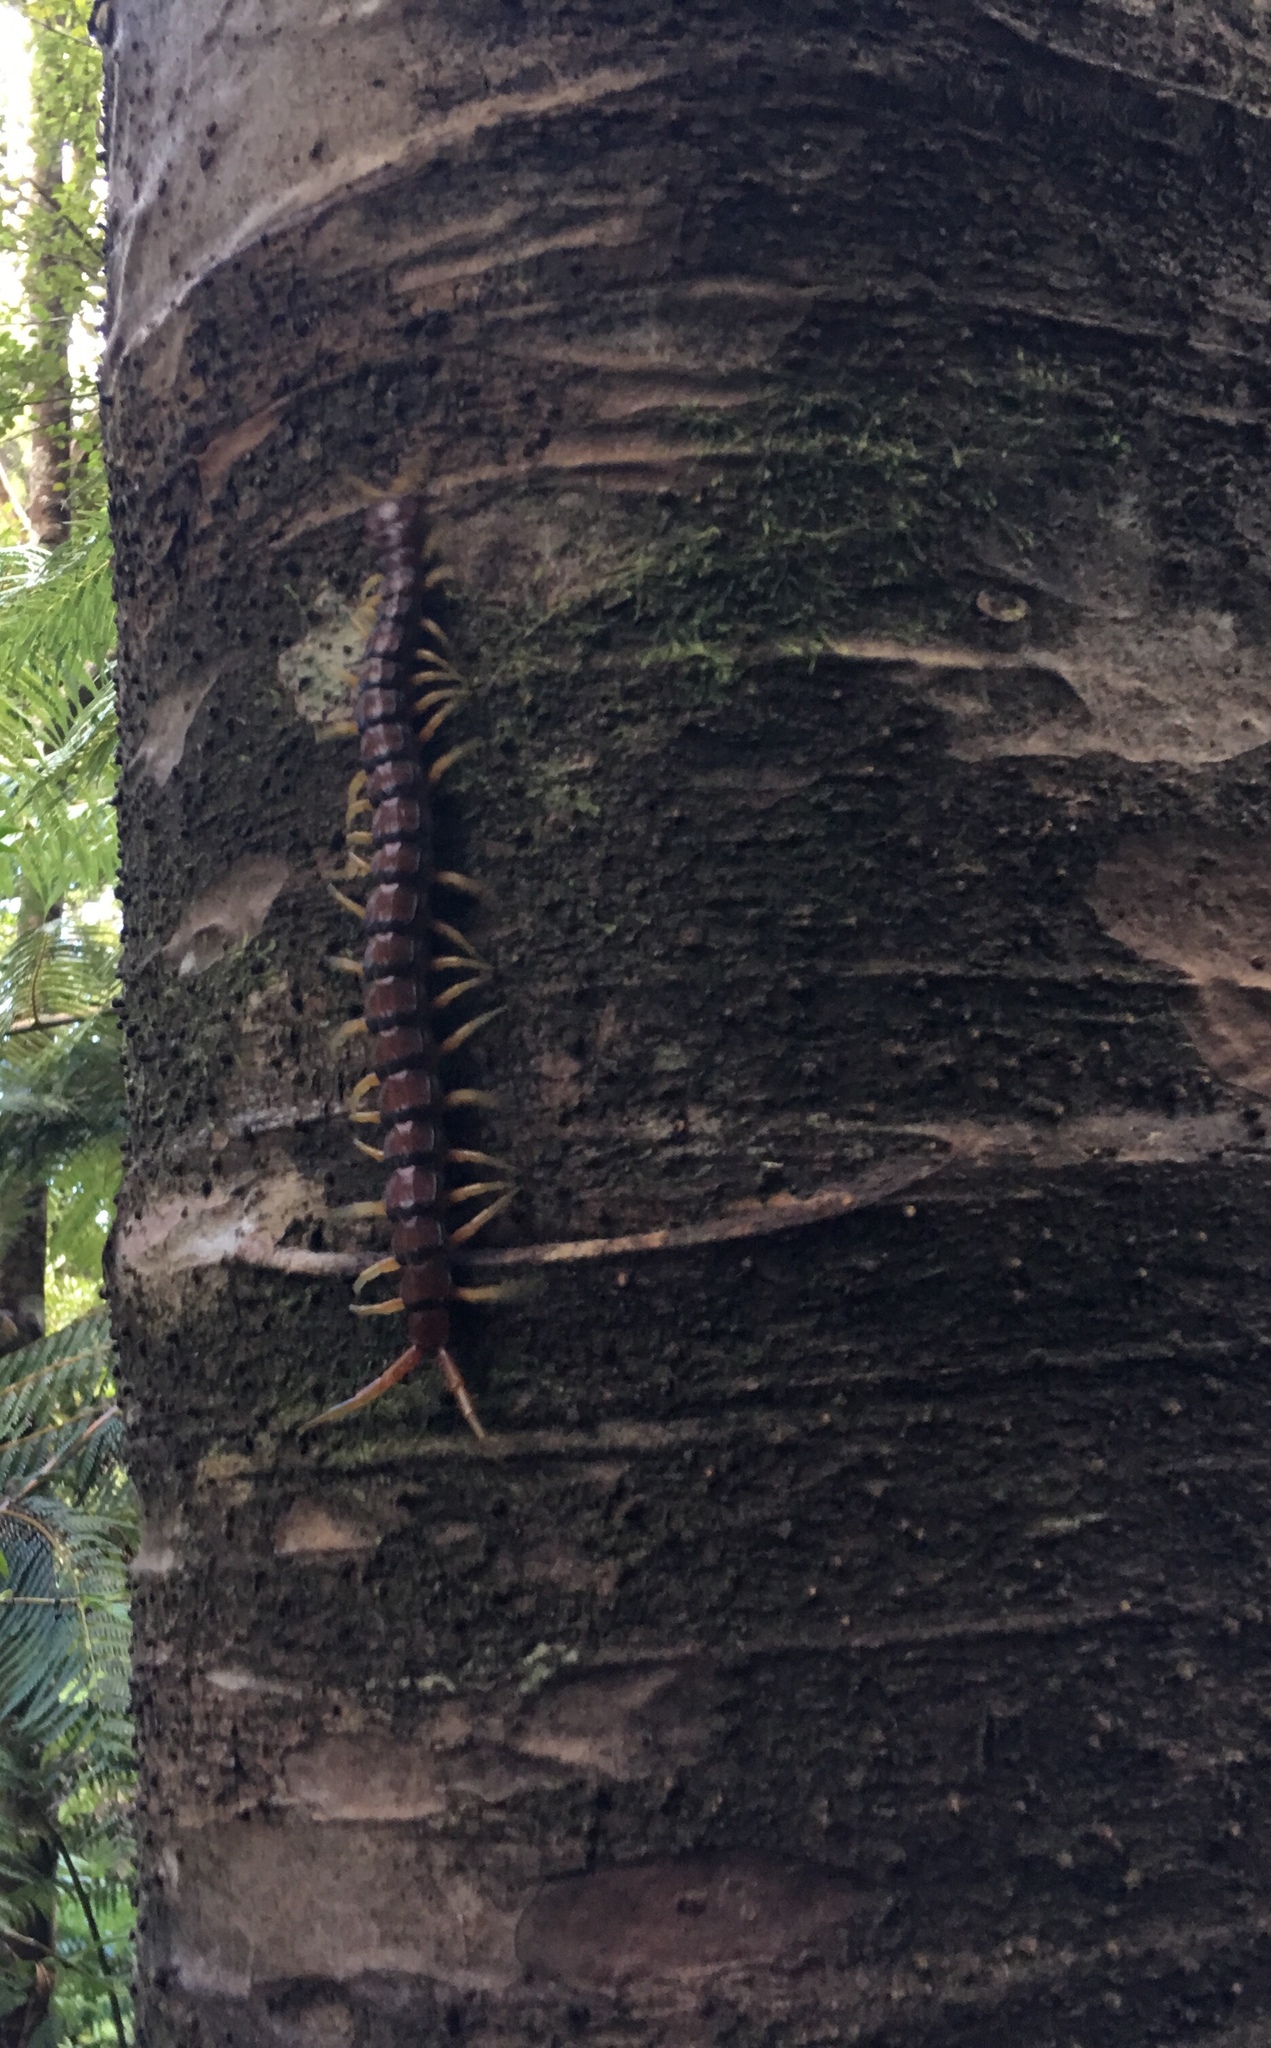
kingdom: Animalia
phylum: Arthropoda
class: Chilopoda
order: Scolopendromorpha
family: Scolopendridae
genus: Cormocephalus
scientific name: Cormocephalus rubriceps
